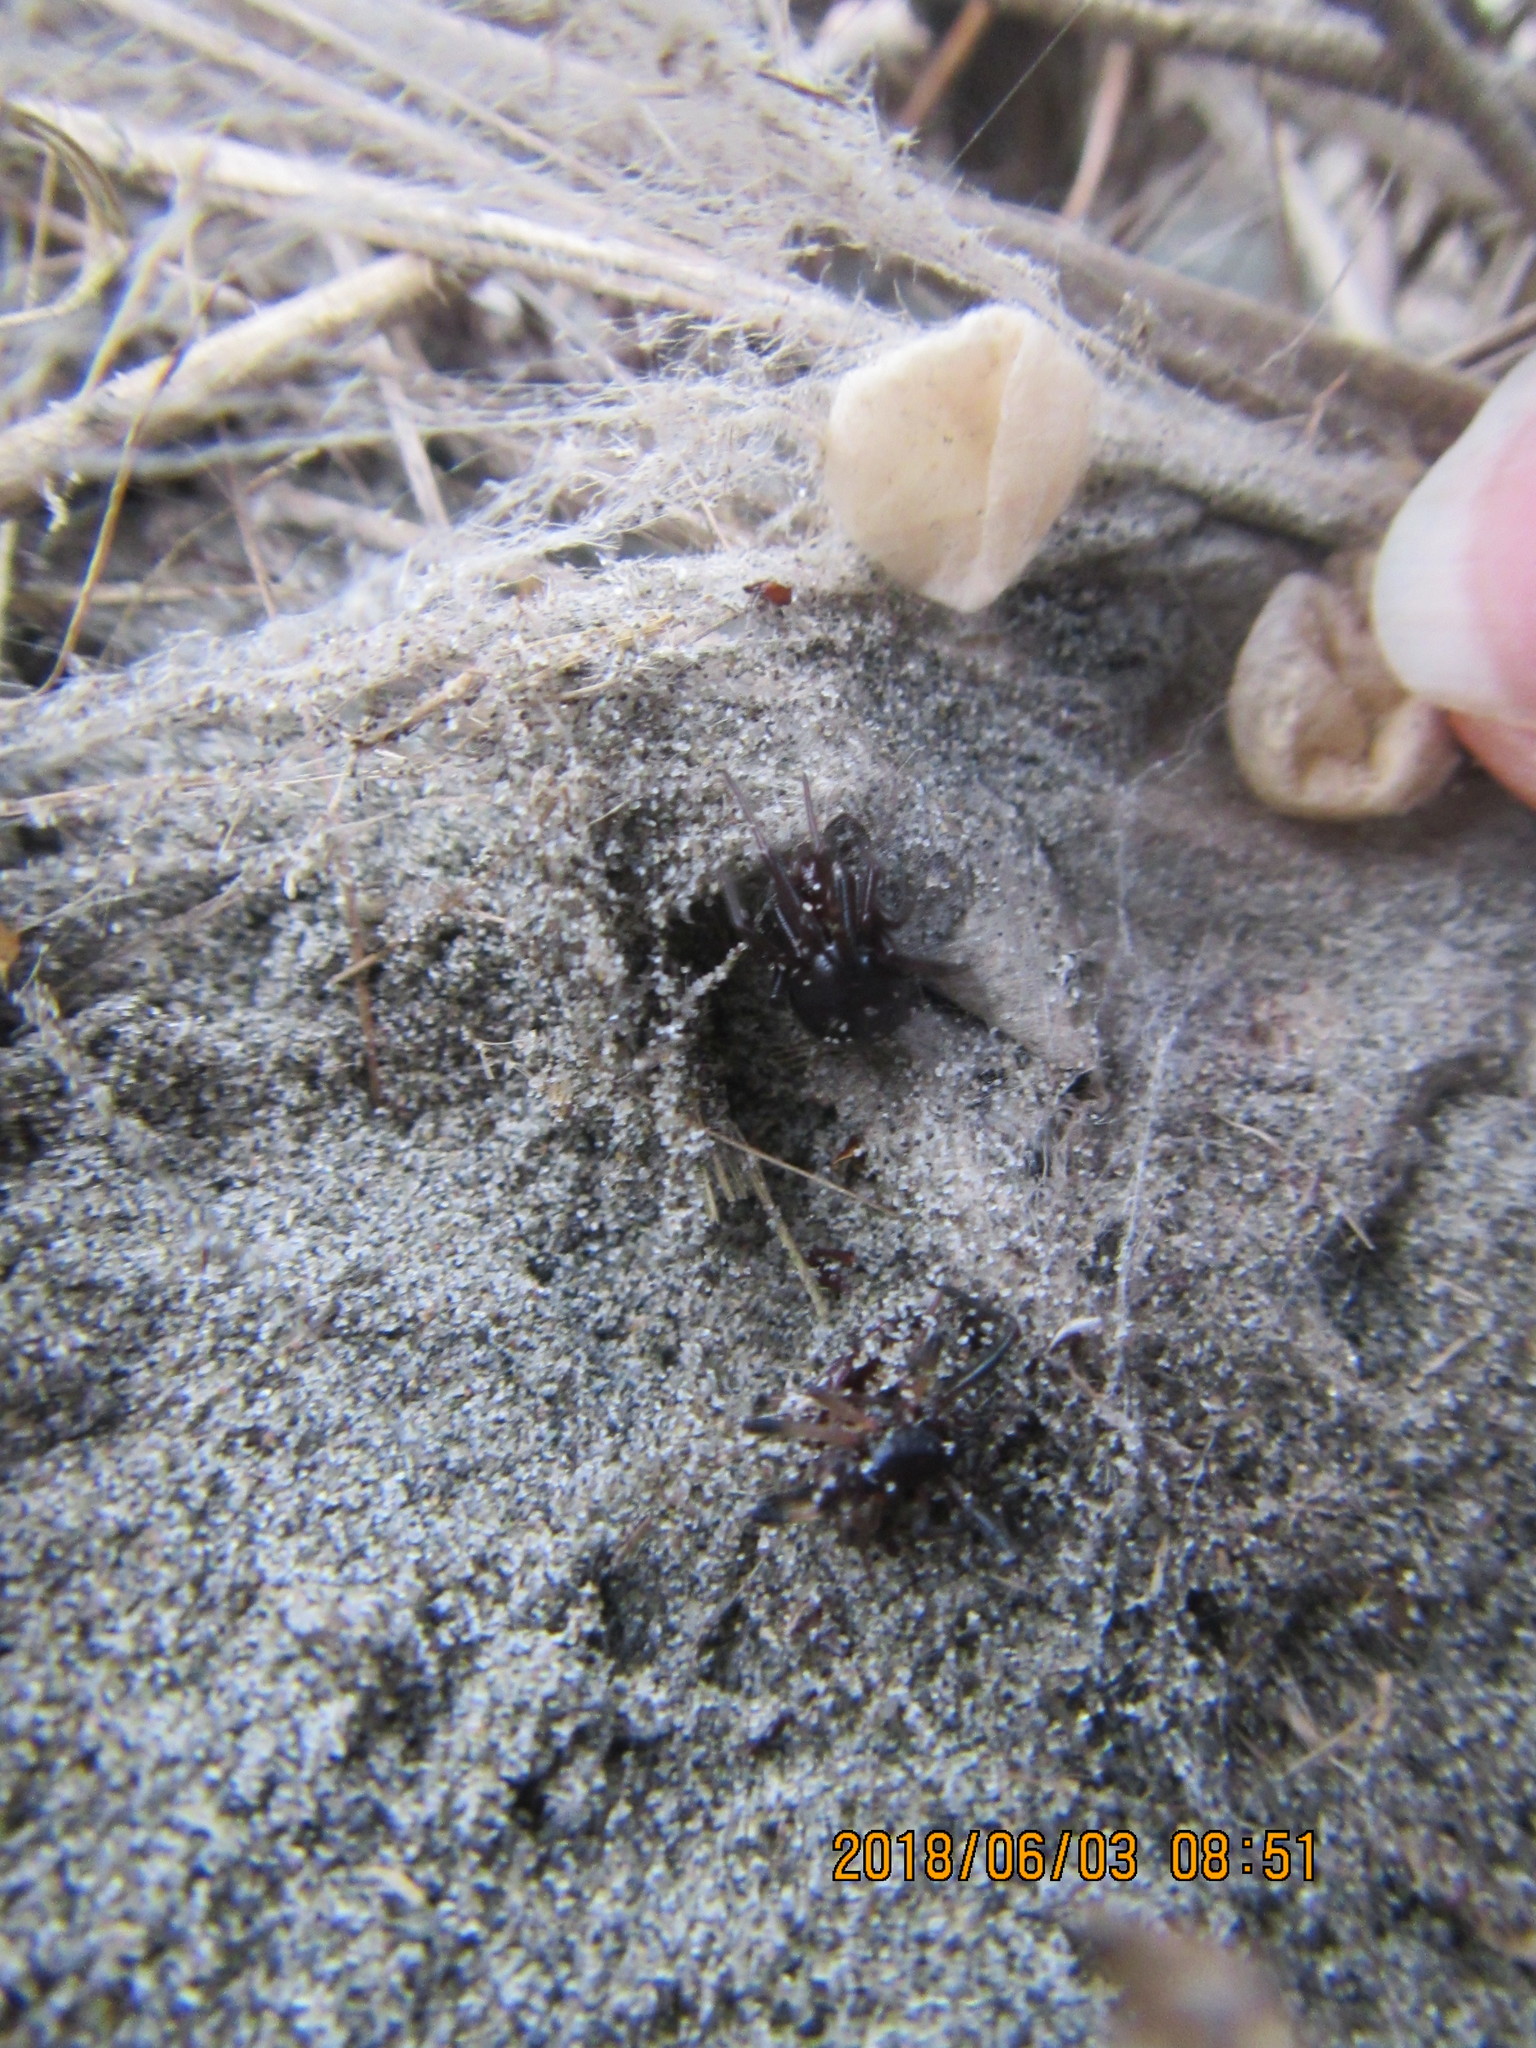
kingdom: Animalia
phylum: Arthropoda
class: Arachnida
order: Araneae
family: Theridiidae
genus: Steatoda
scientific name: Steatoda capensis
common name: Cobweb weaver
